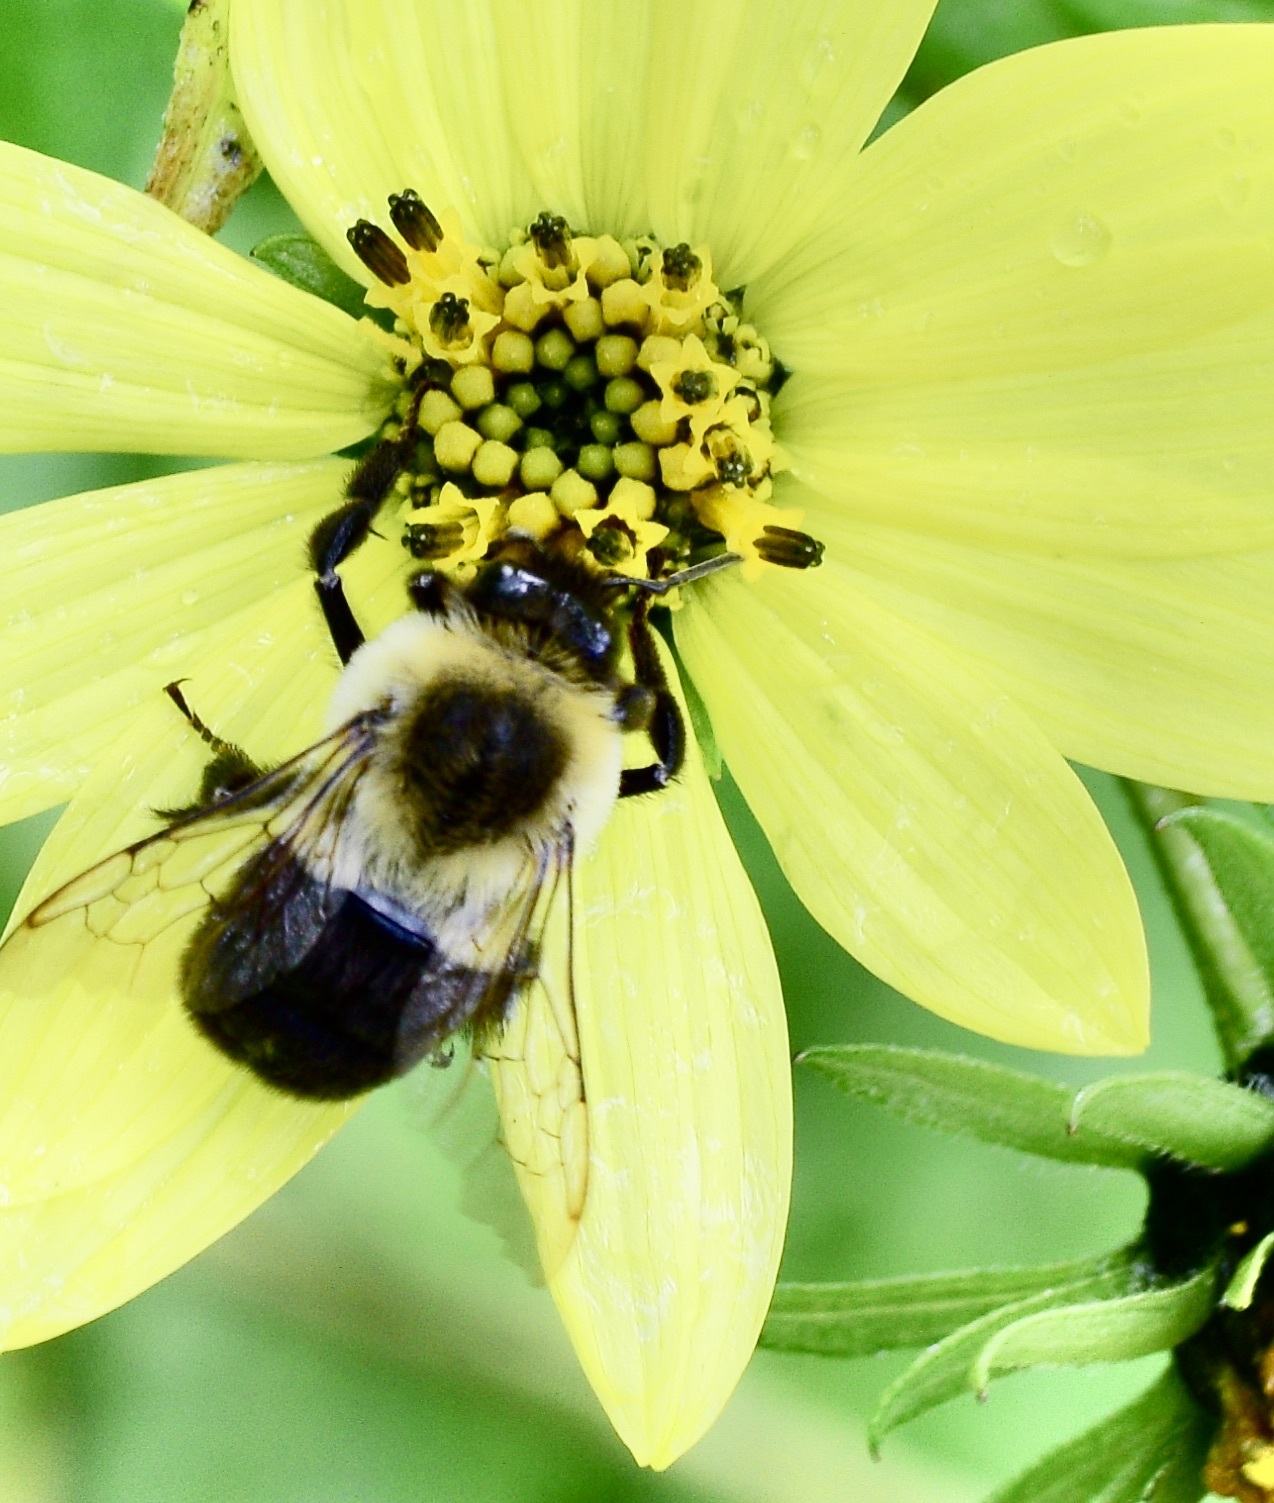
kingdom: Animalia
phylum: Arthropoda
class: Insecta
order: Hymenoptera
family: Apidae
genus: Bombus
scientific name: Bombus impatiens
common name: Common eastern bumble bee
